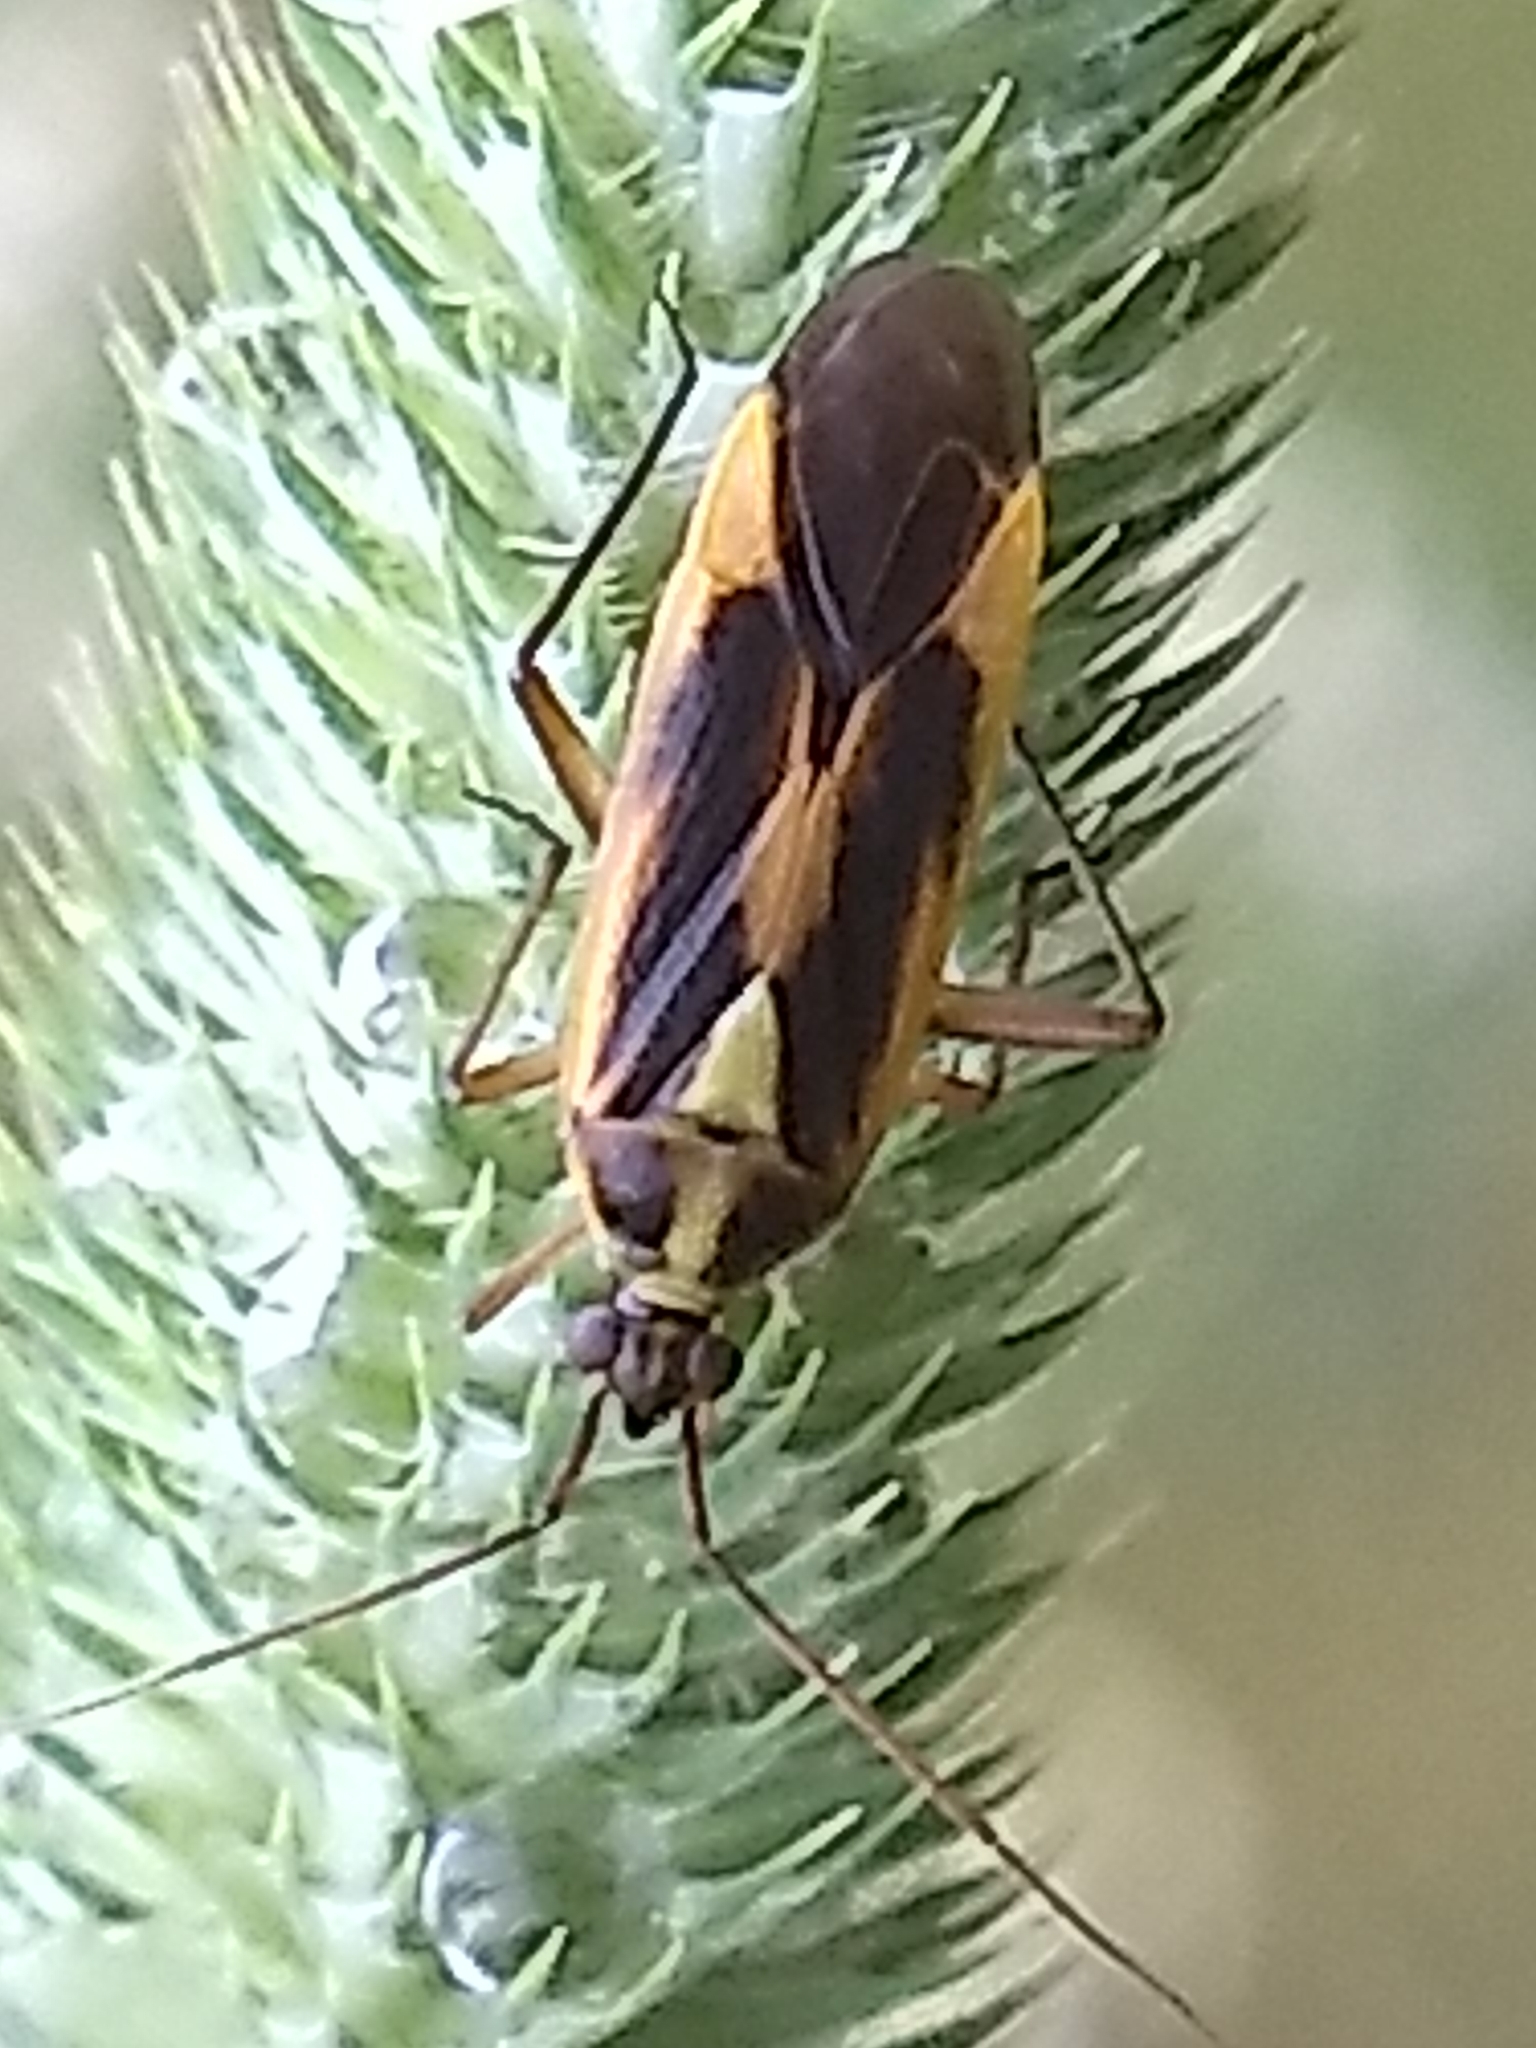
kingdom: Animalia
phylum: Arthropoda
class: Insecta
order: Hemiptera
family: Miridae
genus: Stenotus
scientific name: Stenotus binotatus
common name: Plant bug
